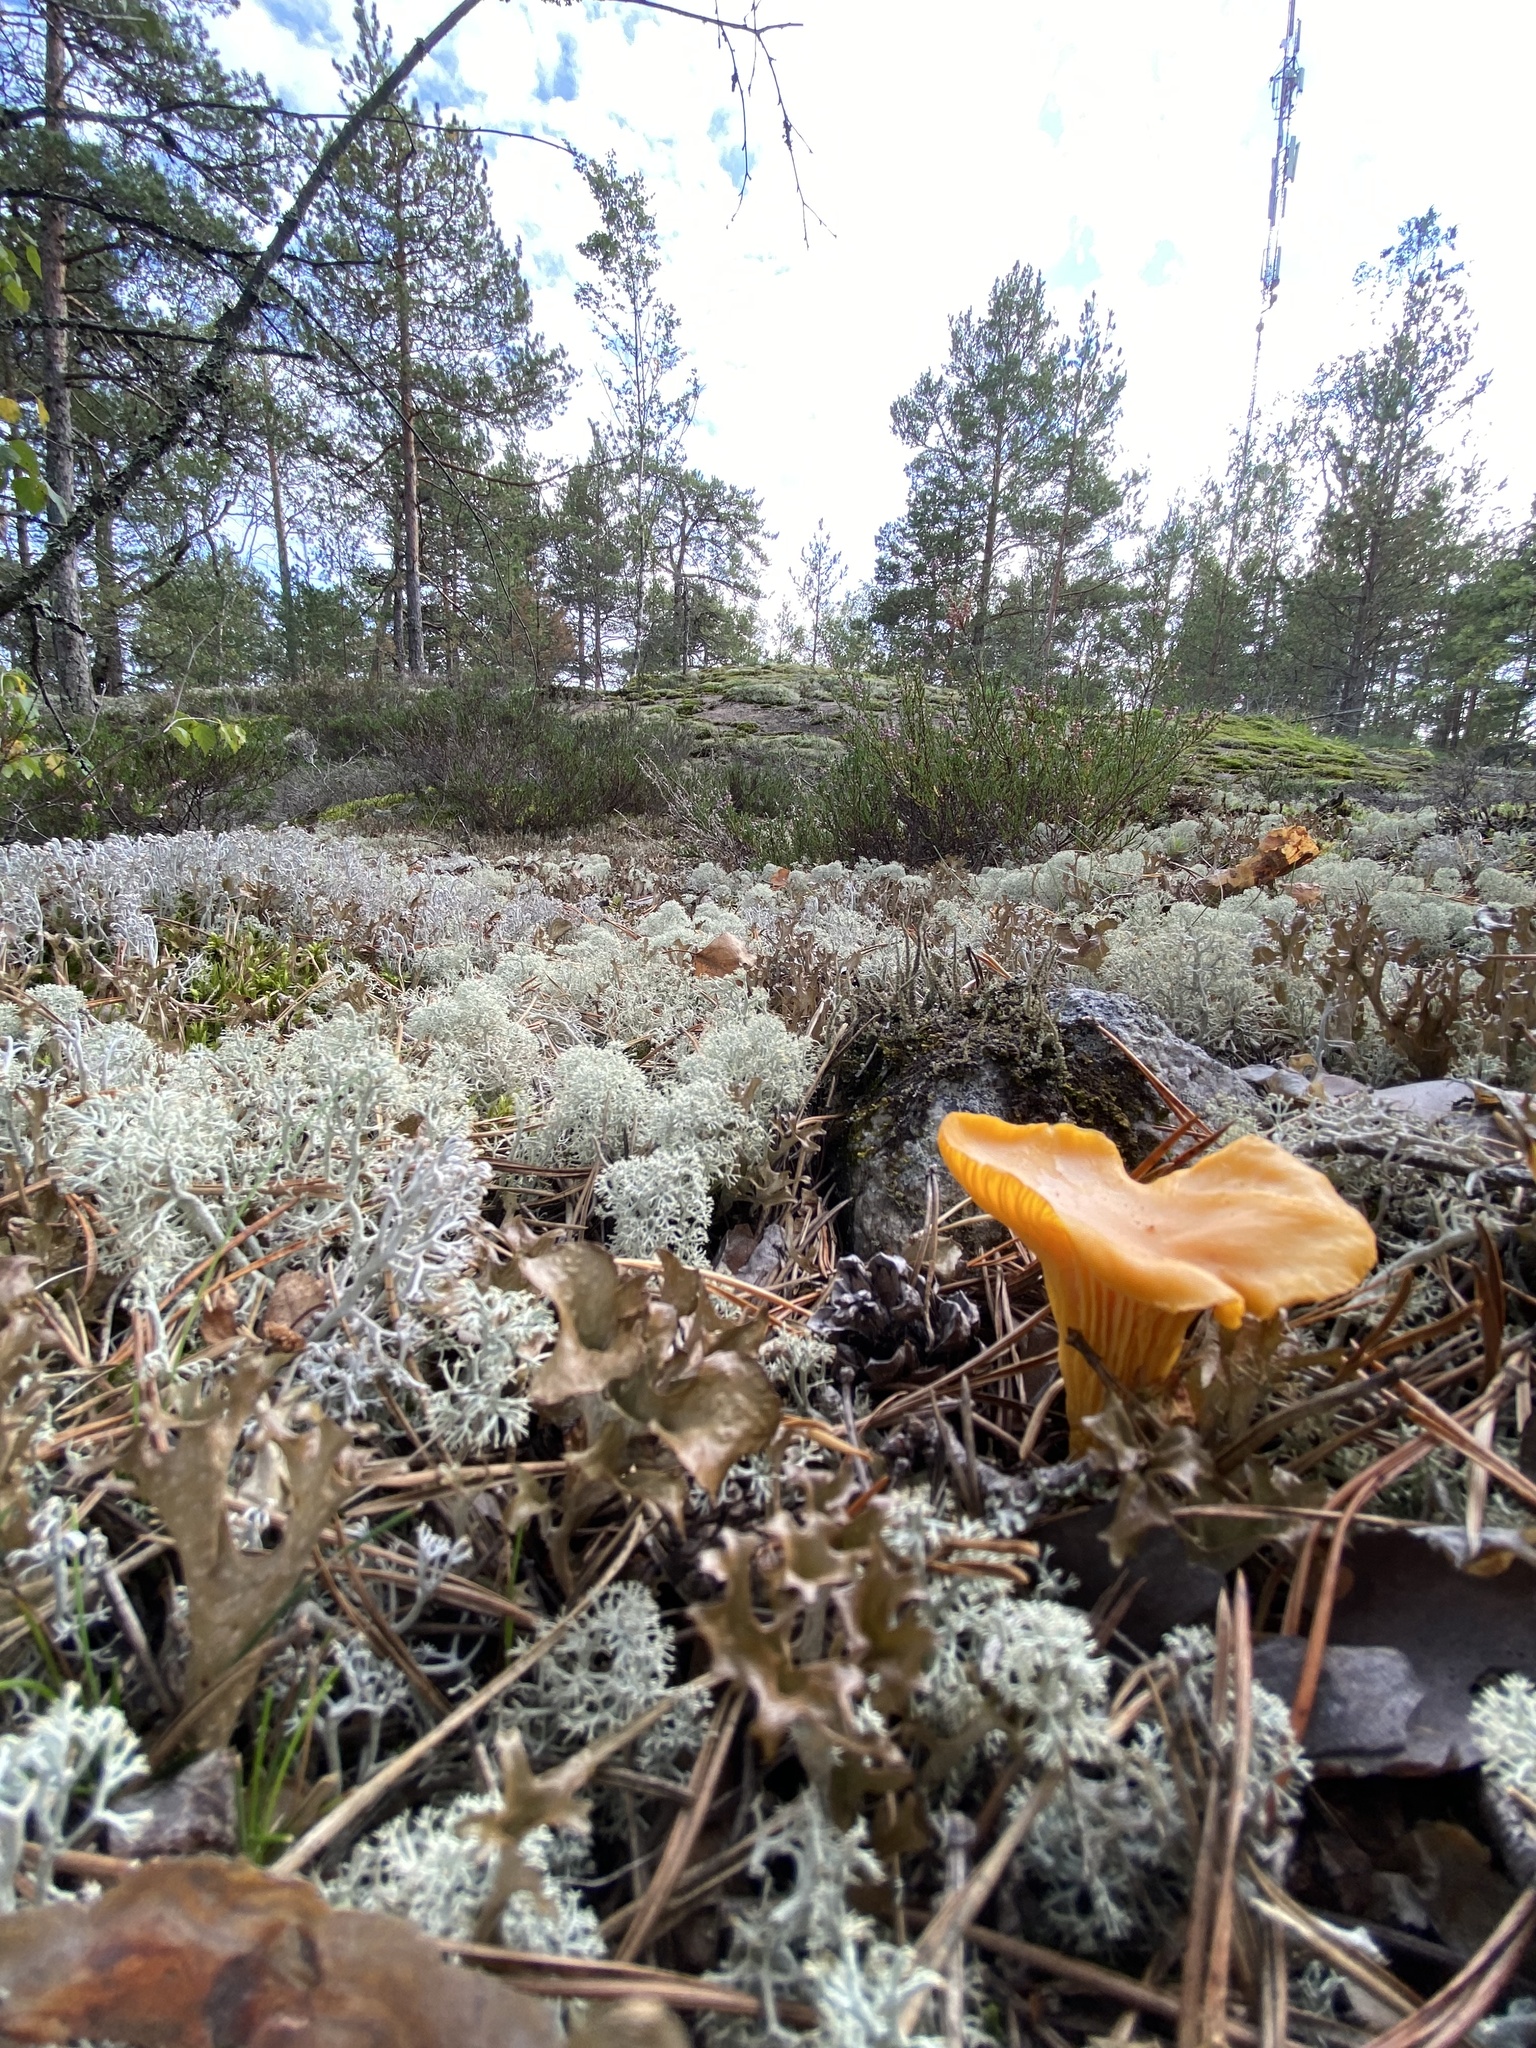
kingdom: Fungi
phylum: Basidiomycota
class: Agaricomycetes
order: Cantharellales
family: Hydnaceae
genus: Cantharellus
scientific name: Cantharellus cibarius
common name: Chanterelle
